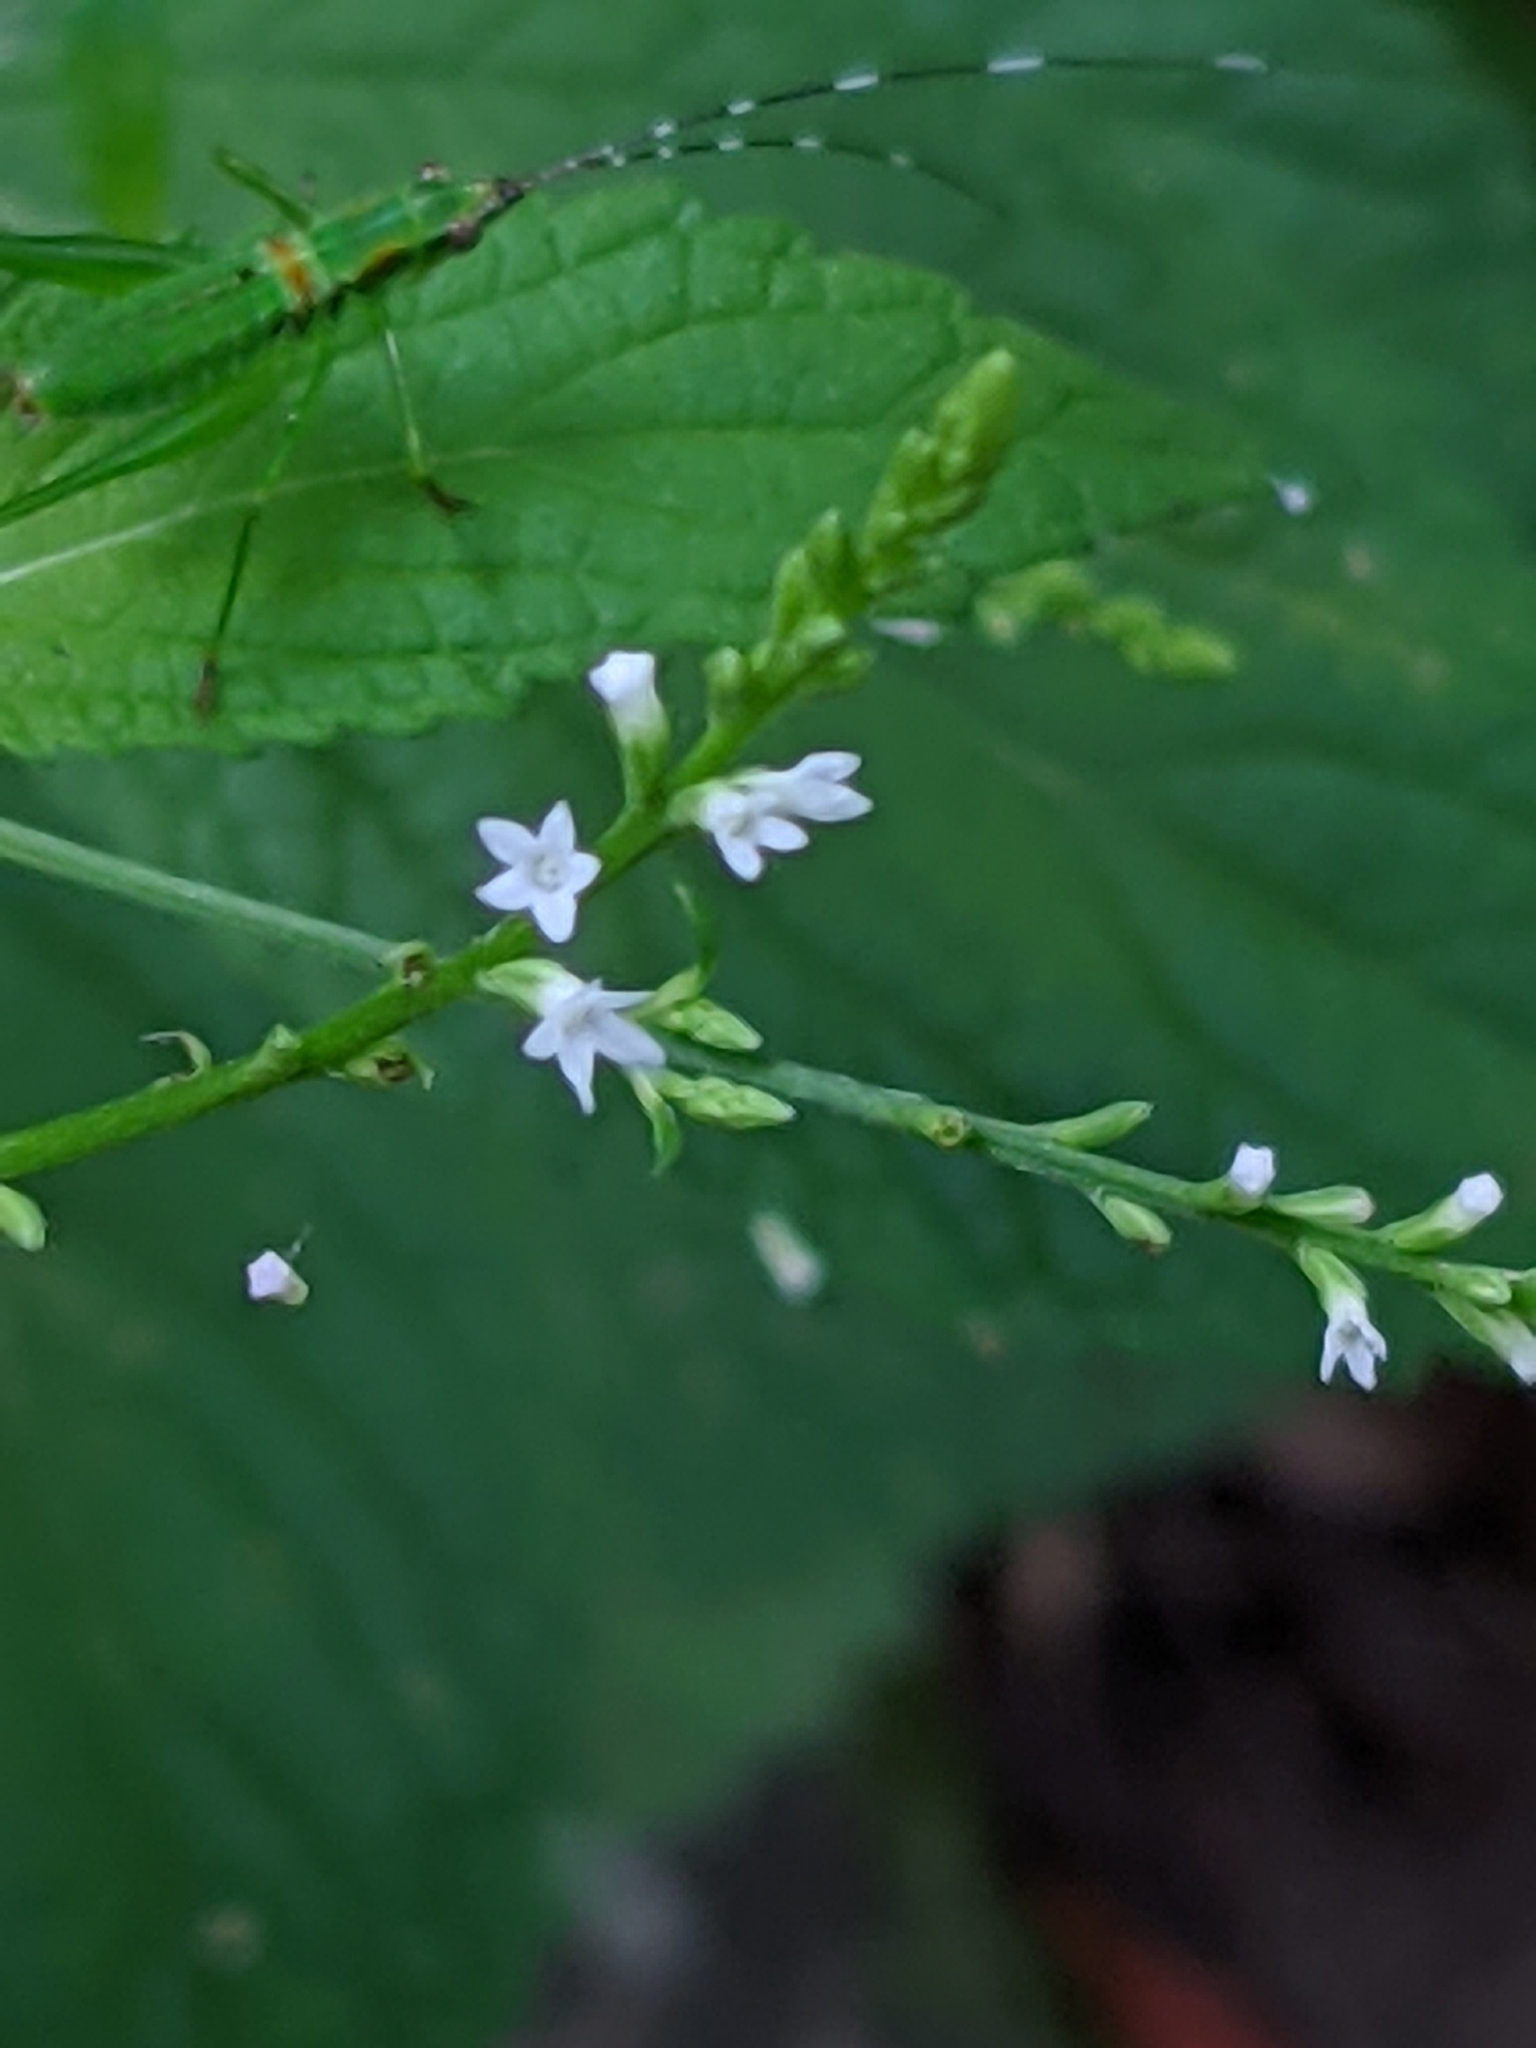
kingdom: Plantae
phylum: Tracheophyta
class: Magnoliopsida
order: Lamiales
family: Verbenaceae
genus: Verbena
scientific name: Verbena urticifolia
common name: Nettle-leaved vervain
